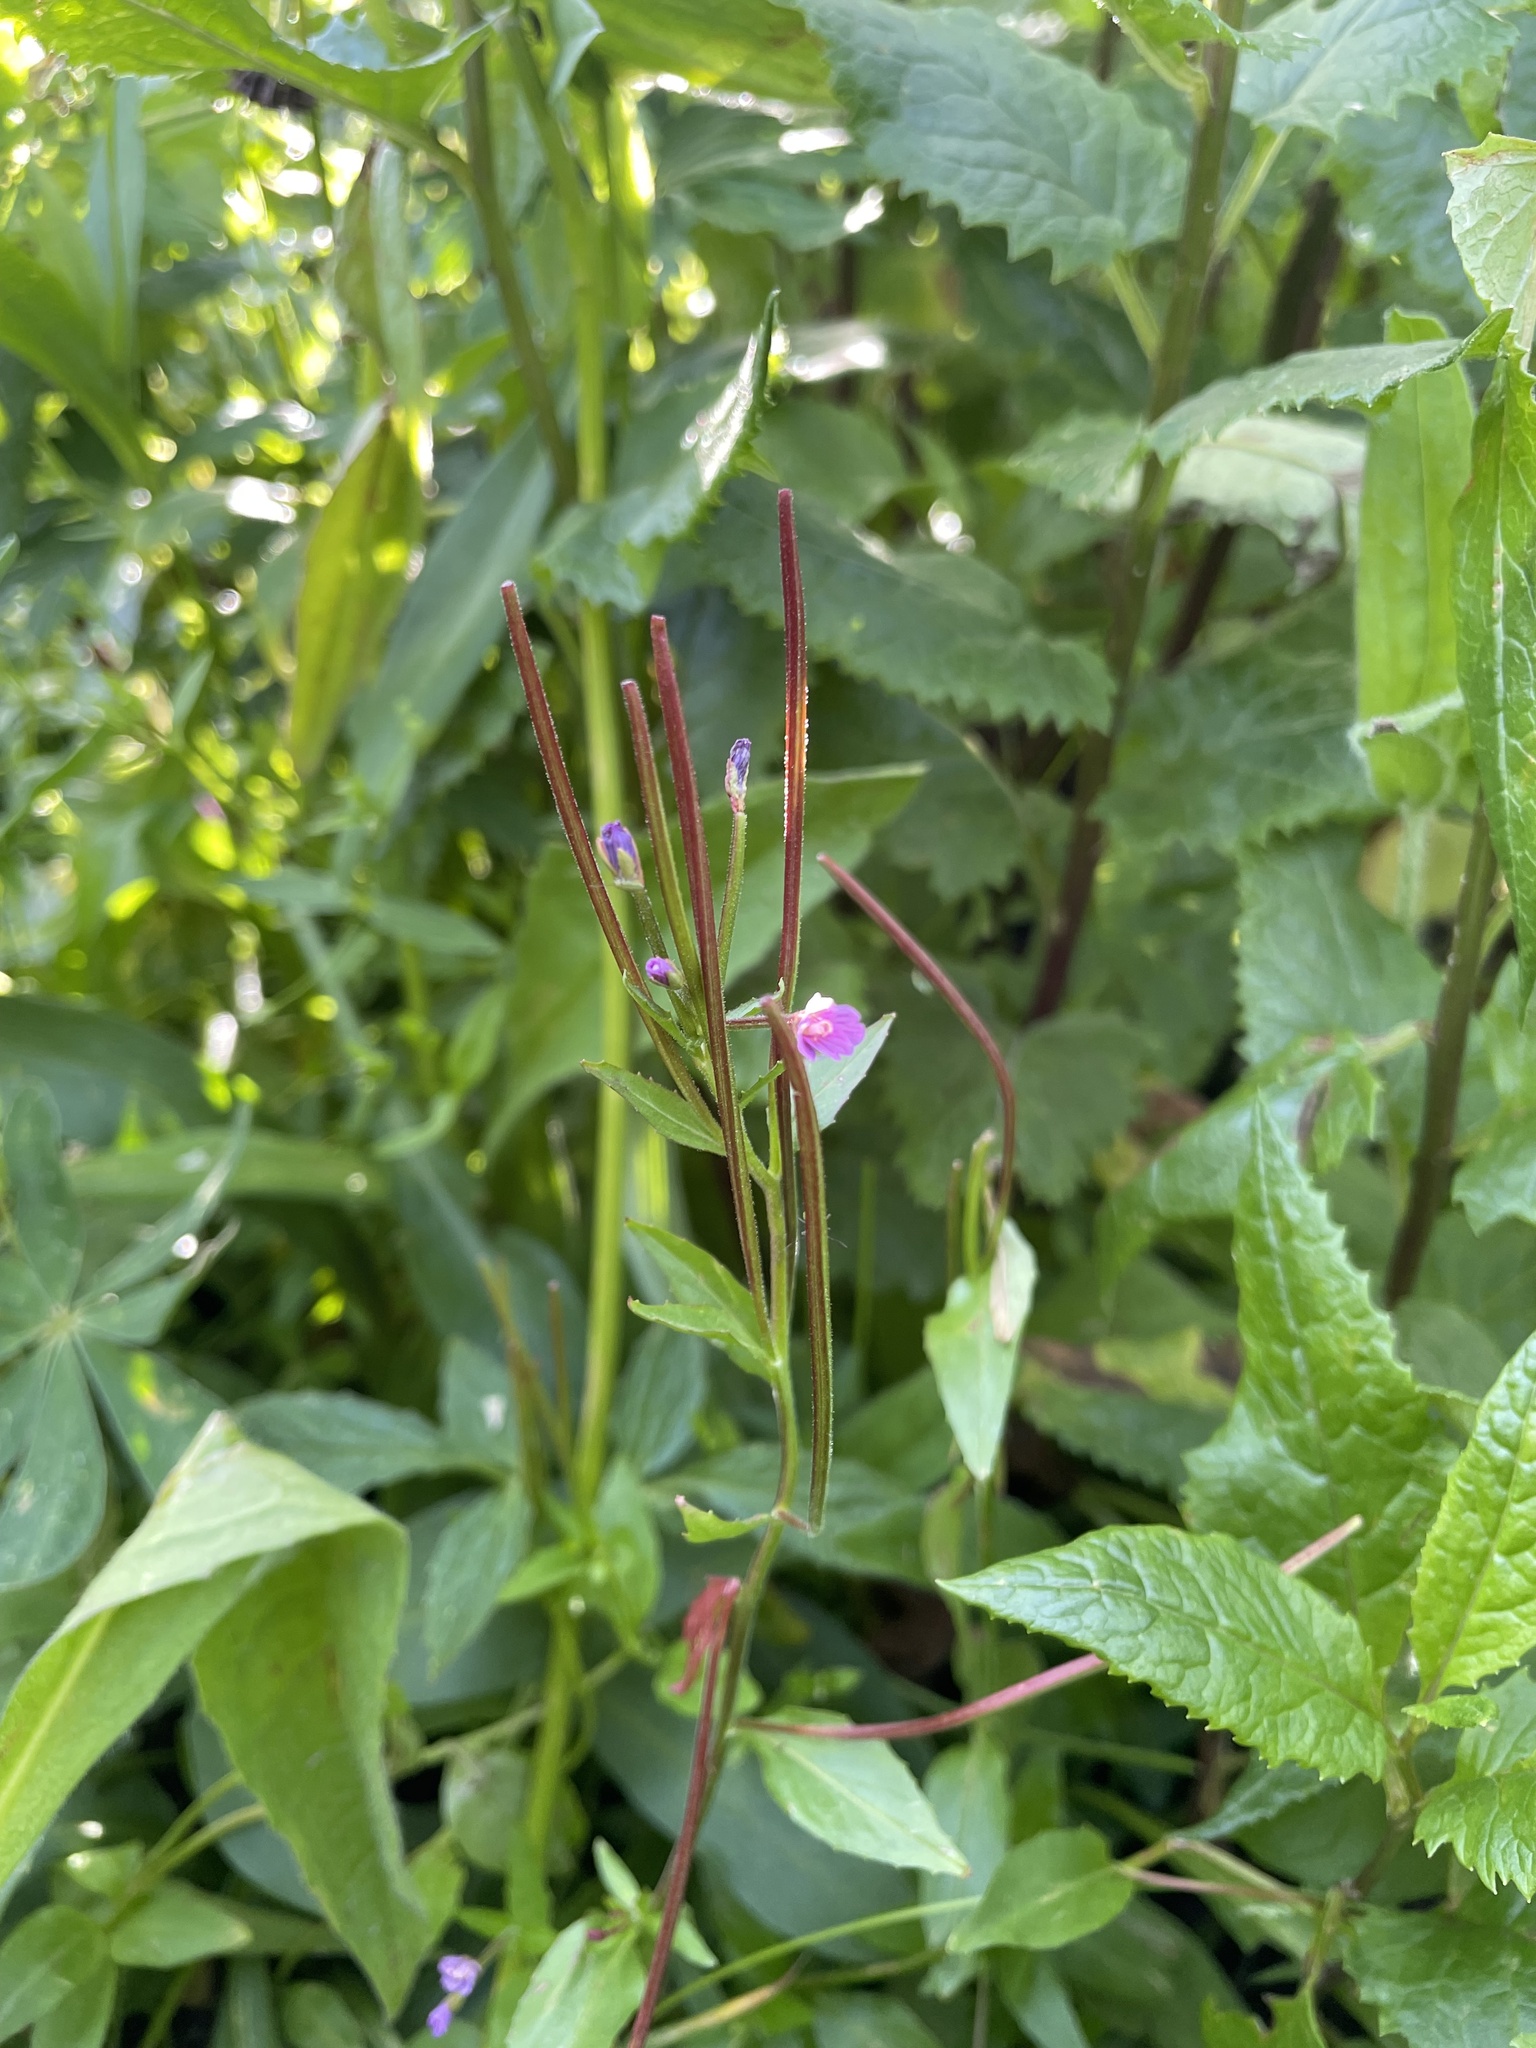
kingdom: Plantae
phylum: Tracheophyta
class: Magnoliopsida
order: Myrtales
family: Onagraceae
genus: Epilobium
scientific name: Epilobium ciliatum
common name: American willowherb
